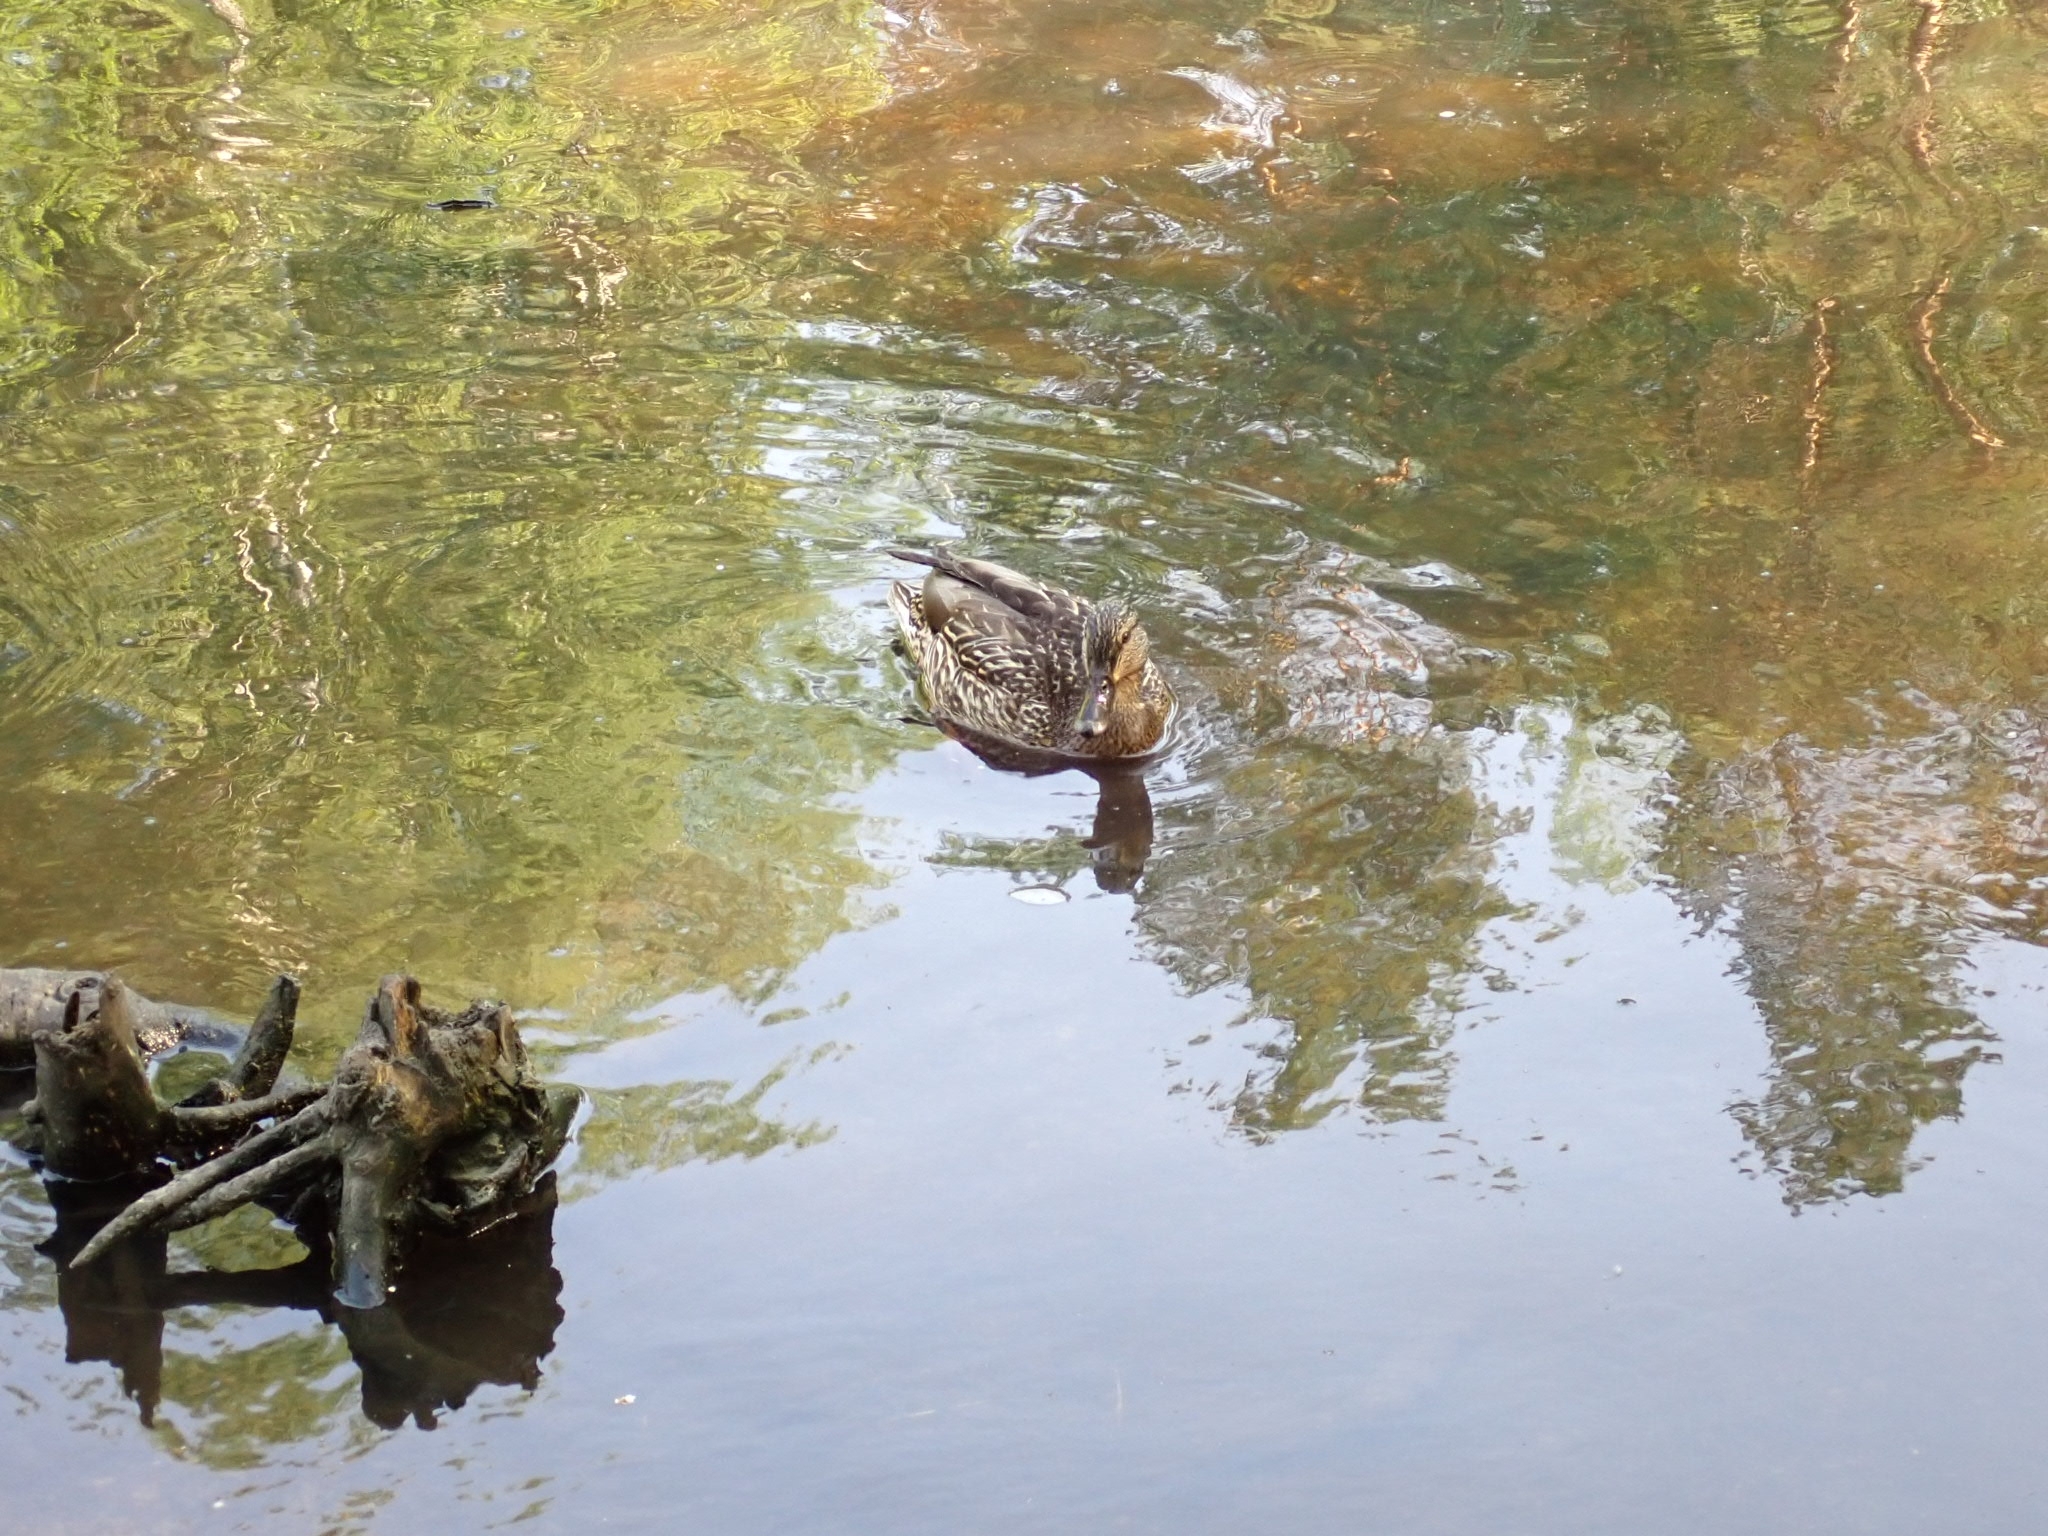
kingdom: Animalia
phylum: Chordata
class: Aves
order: Anseriformes
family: Anatidae
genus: Anas
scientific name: Anas platyrhynchos
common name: Mallard
